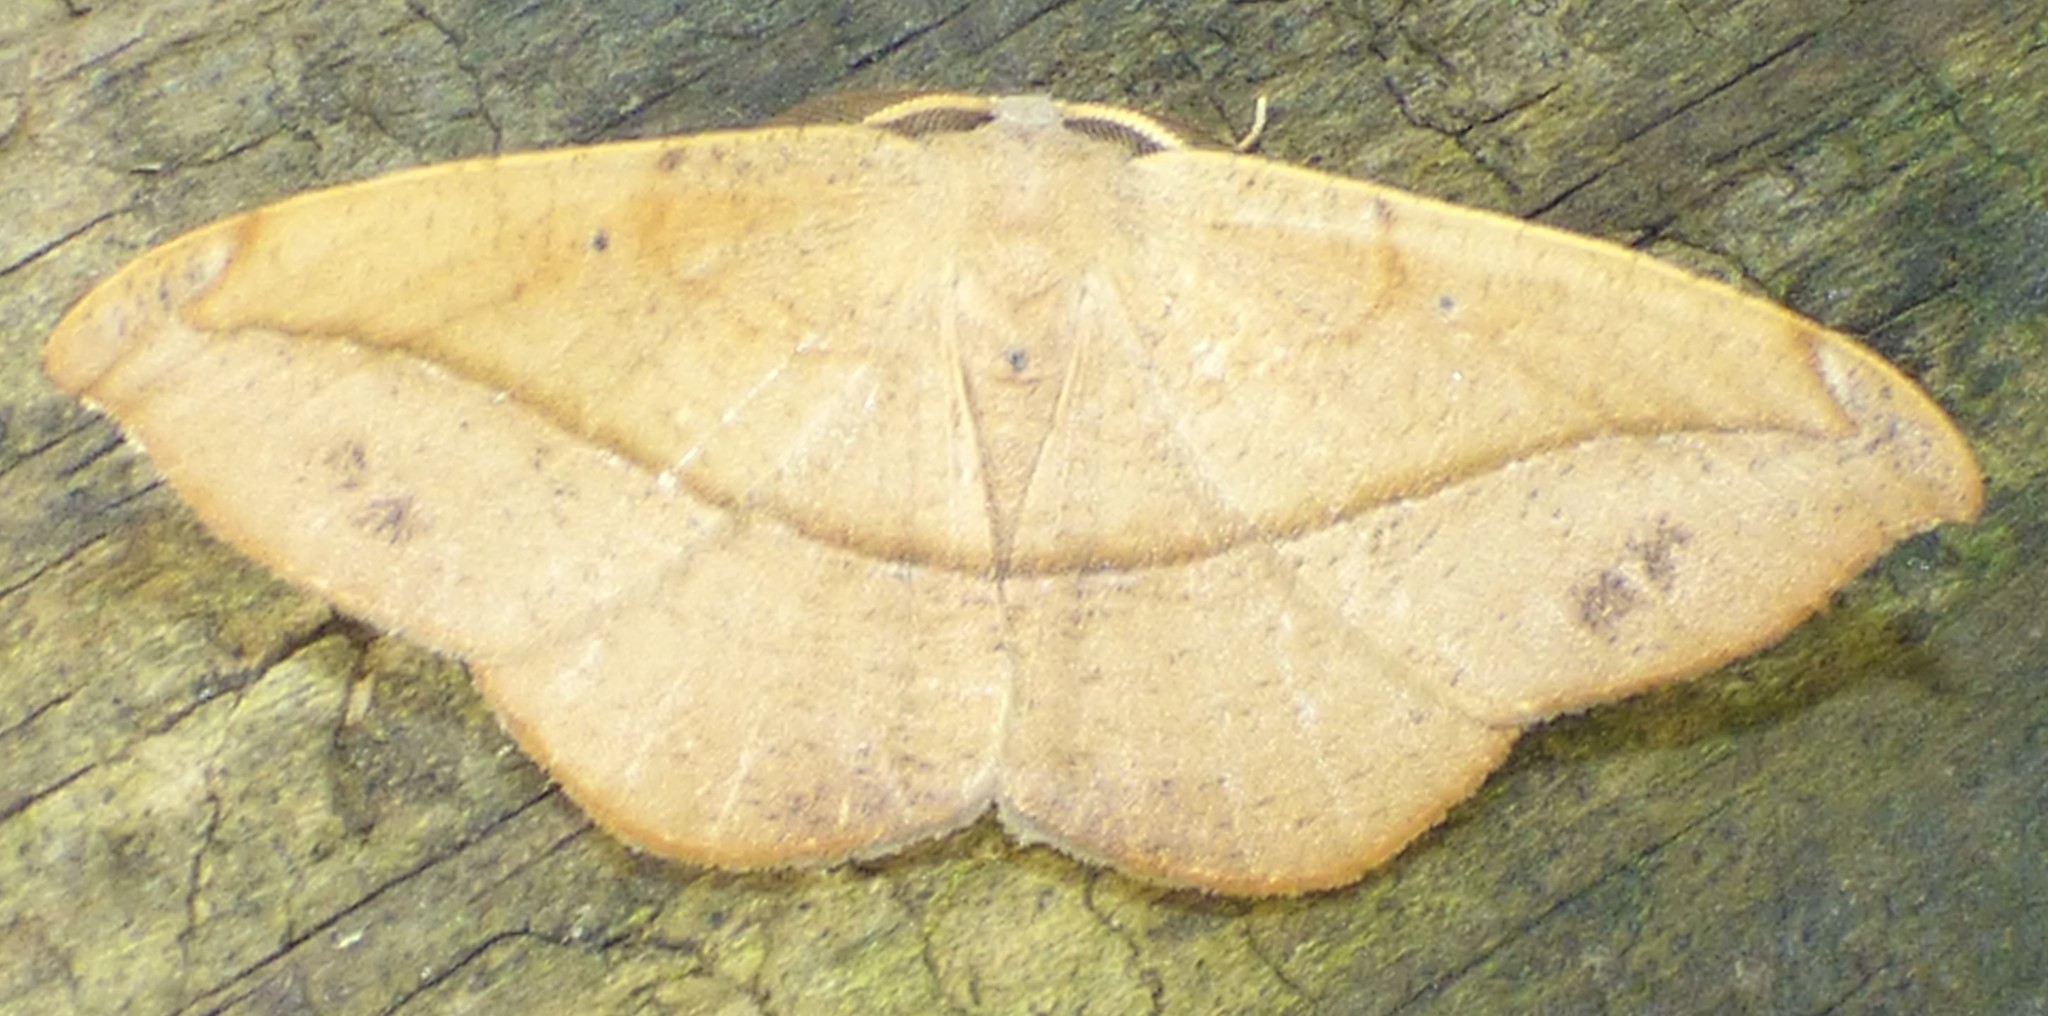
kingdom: Animalia
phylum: Arthropoda
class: Insecta
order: Lepidoptera
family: Geometridae
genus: Patalene
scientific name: Patalene olyzonaria
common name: Juniper geometer moth
